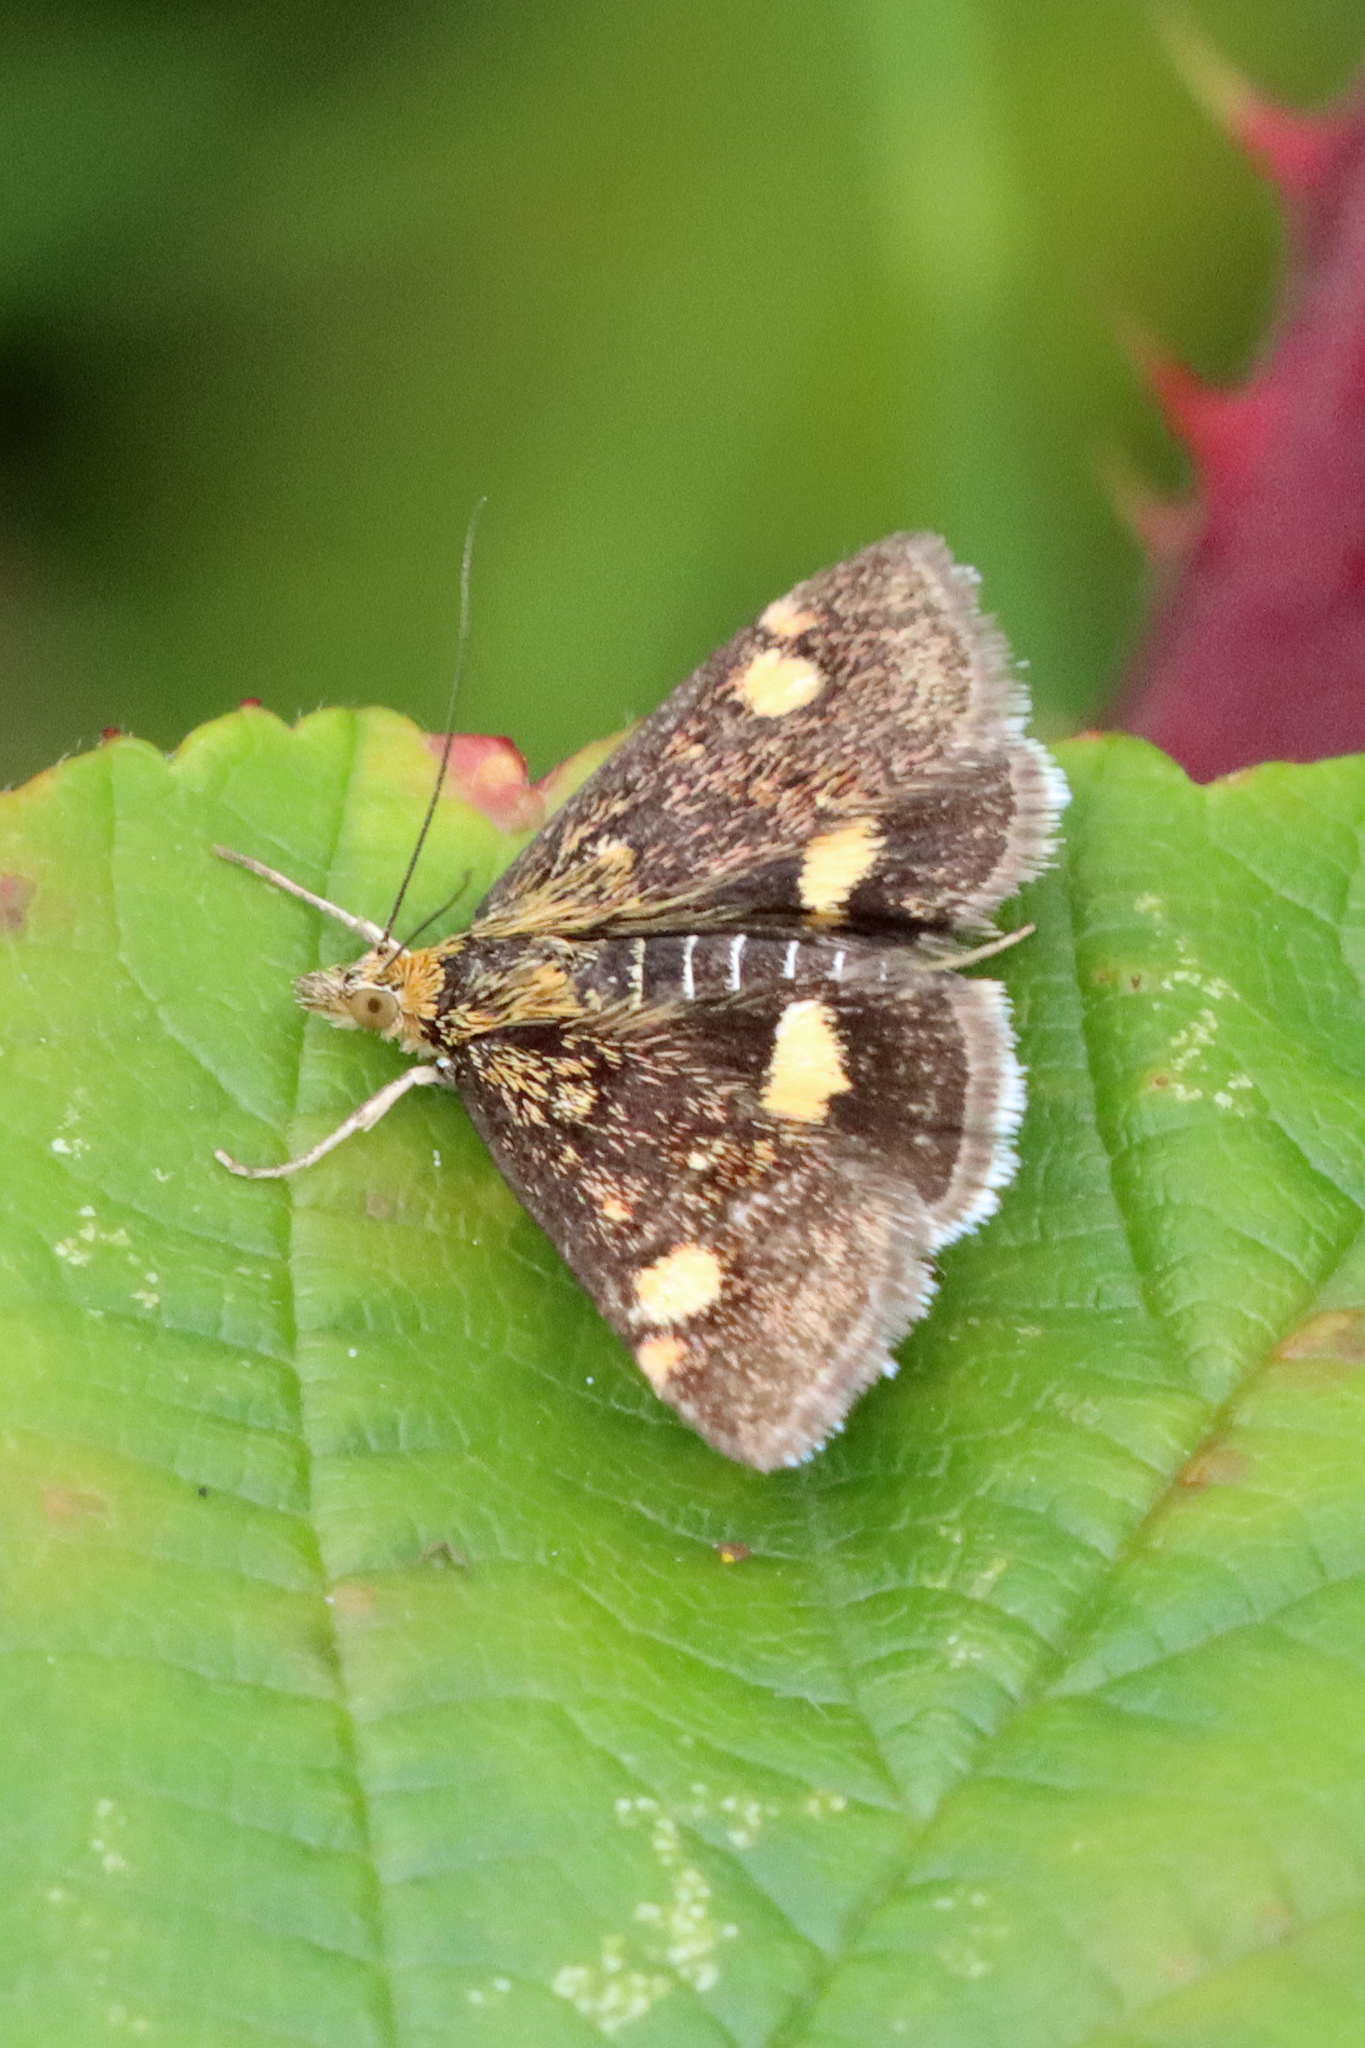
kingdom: Animalia
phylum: Arthropoda
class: Insecta
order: Lepidoptera
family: Crambidae
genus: Pyrausta
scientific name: Pyrausta aurata
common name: Small purple & gold
